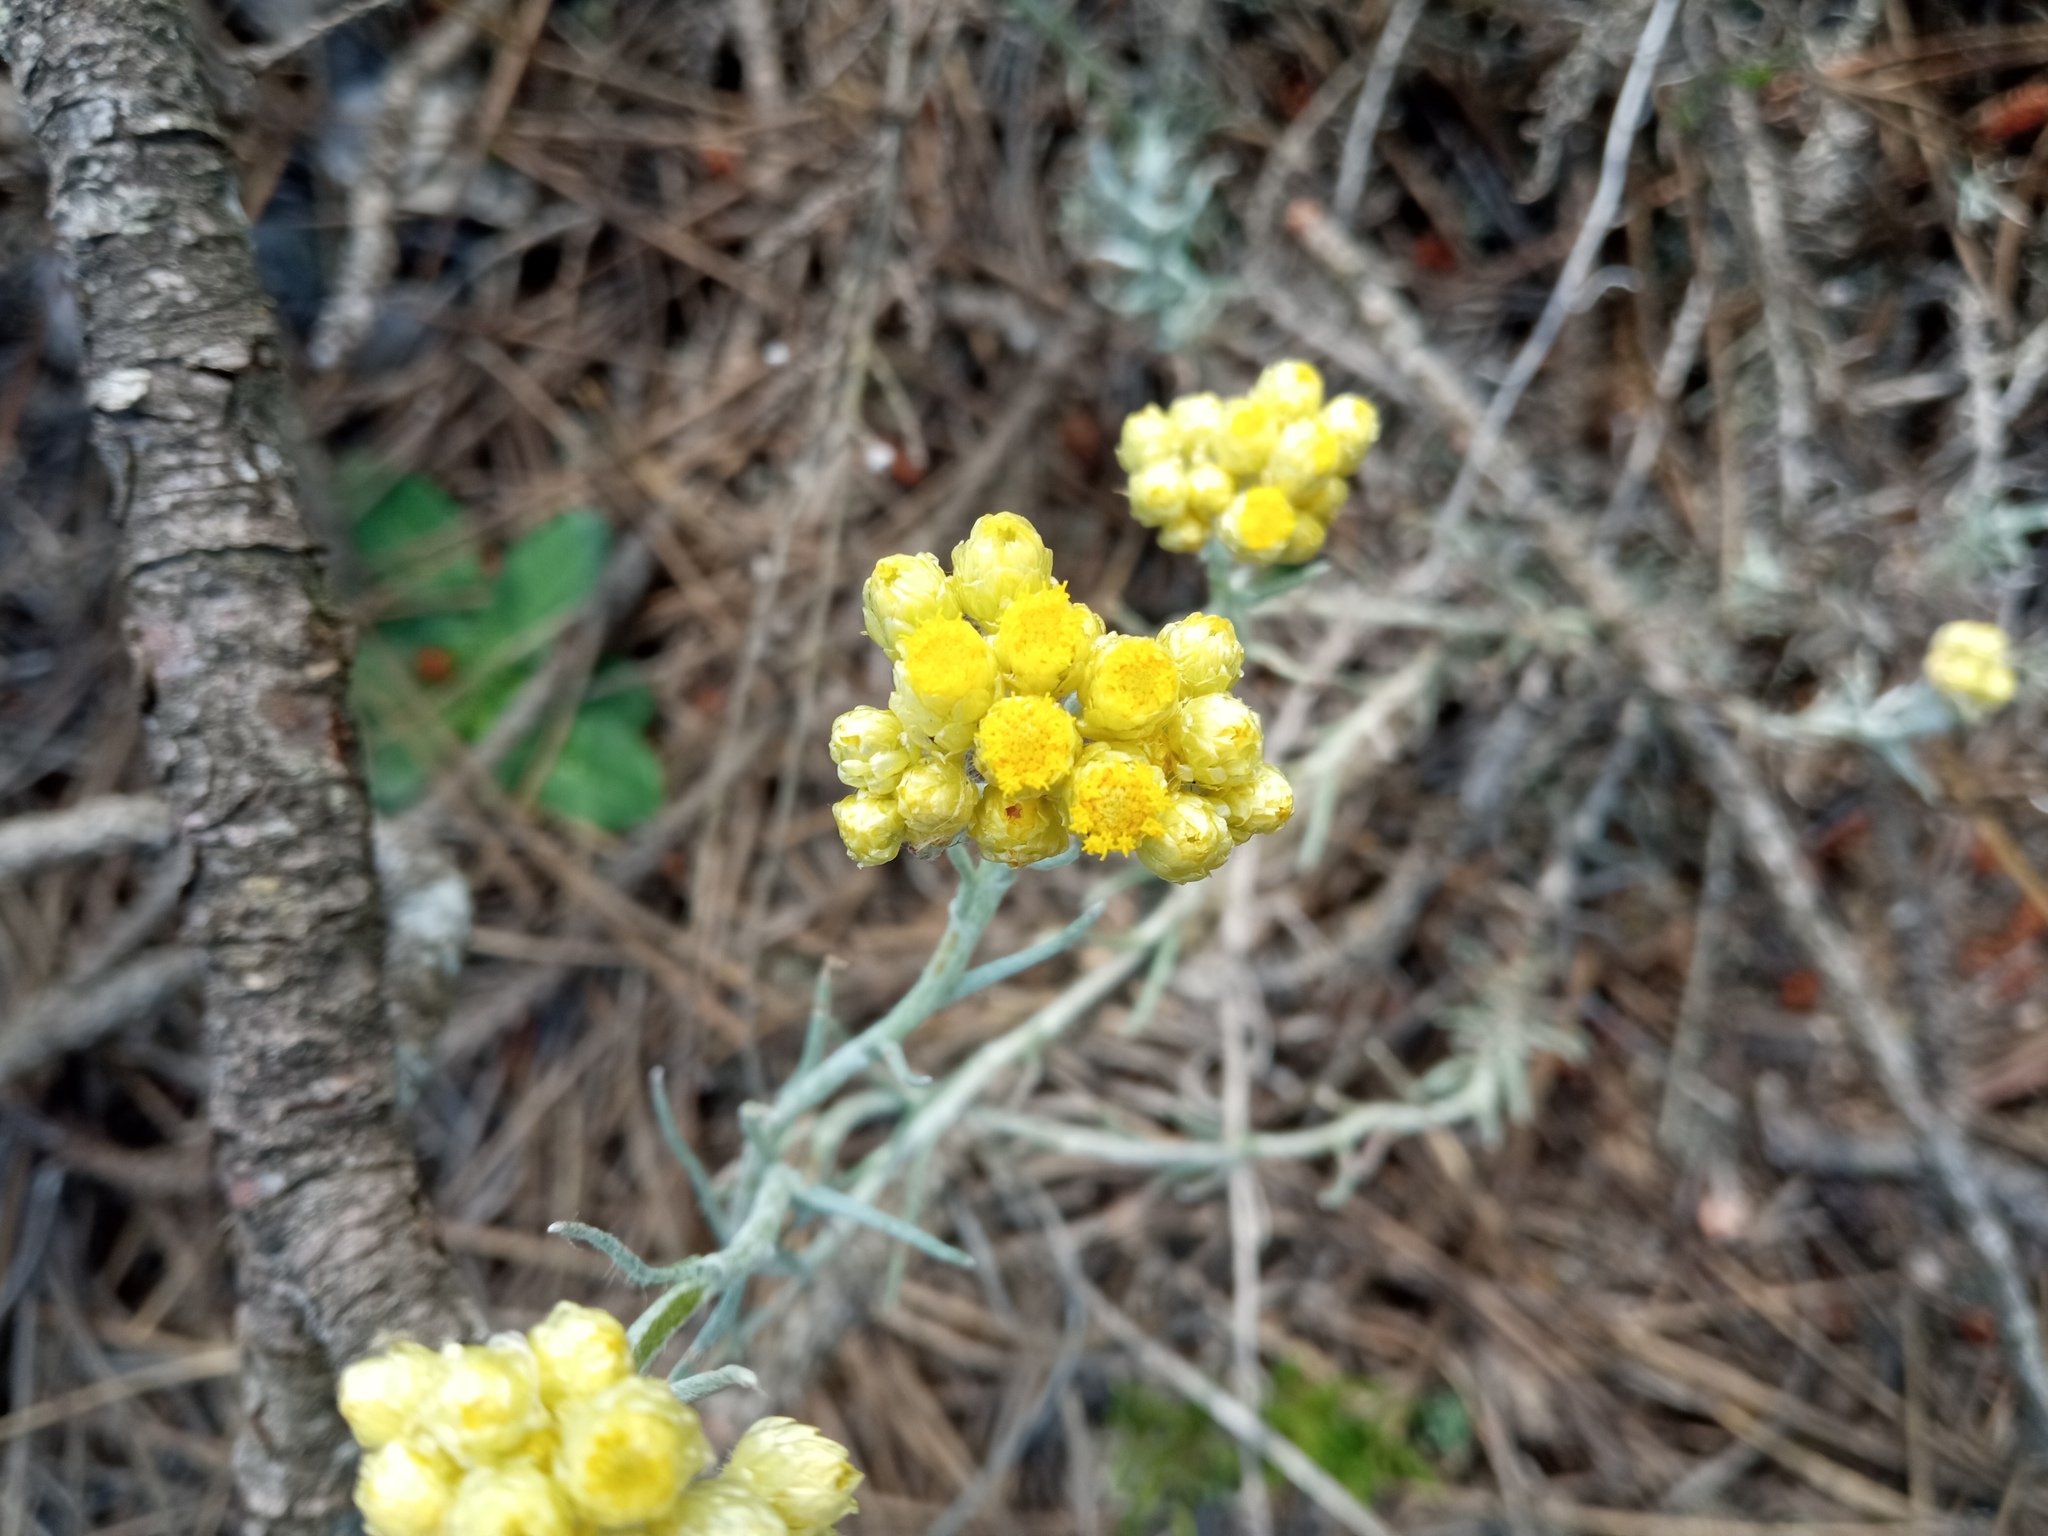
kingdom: Plantae
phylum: Tracheophyta
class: Magnoliopsida
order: Asterales
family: Asteraceae
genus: Helichrysum
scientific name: Helichrysum stoechas
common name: Goldilocks
